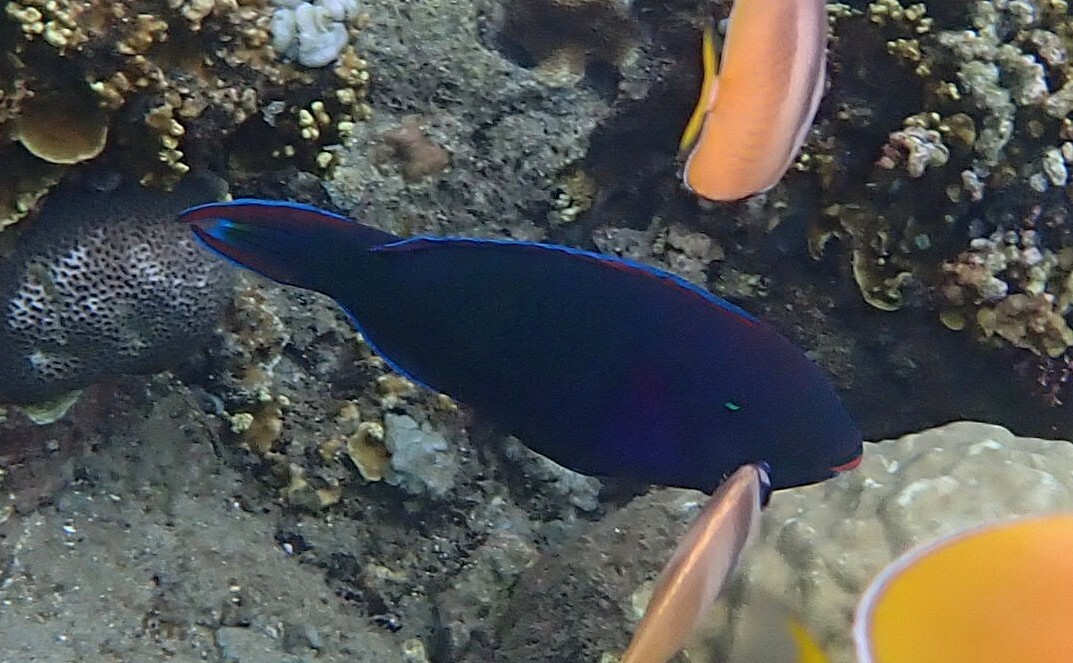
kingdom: Animalia
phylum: Chordata
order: Perciformes
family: Scaridae
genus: Scarus
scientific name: Scarus niger
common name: Dusky parrotfish
